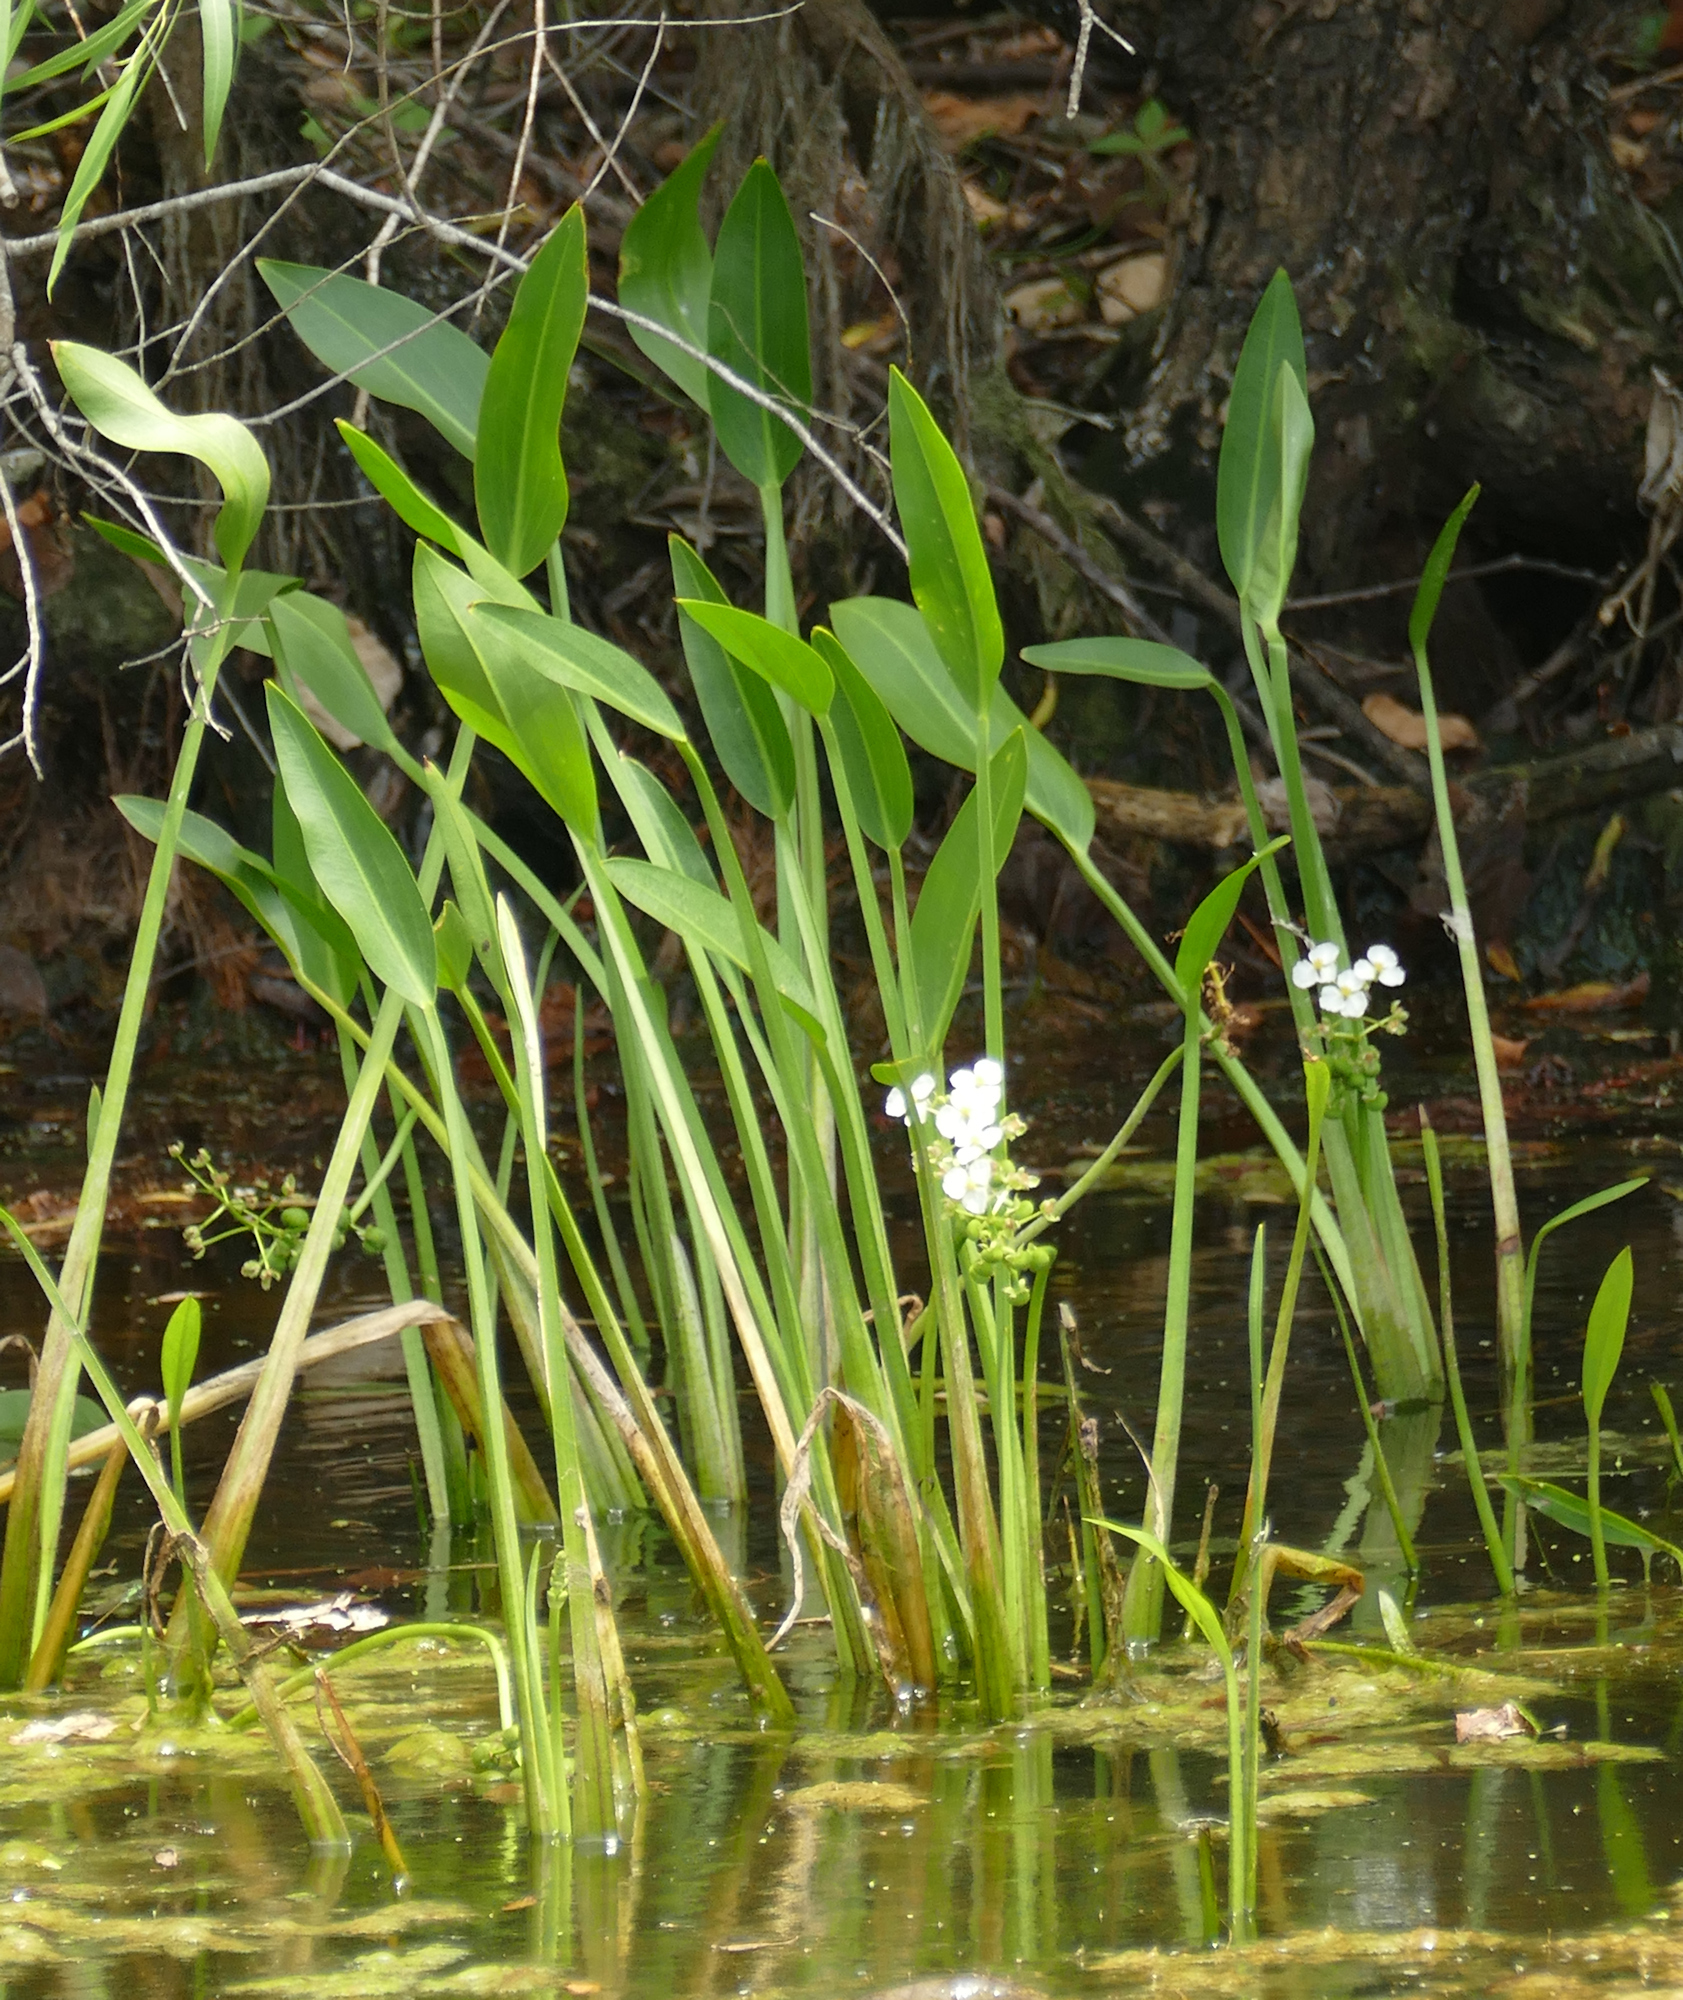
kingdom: Plantae
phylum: Tracheophyta
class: Liliopsida
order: Alismatales
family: Alismataceae
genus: Sagittaria
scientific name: Sagittaria platyphylla
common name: Broad-leaf arrowhead
